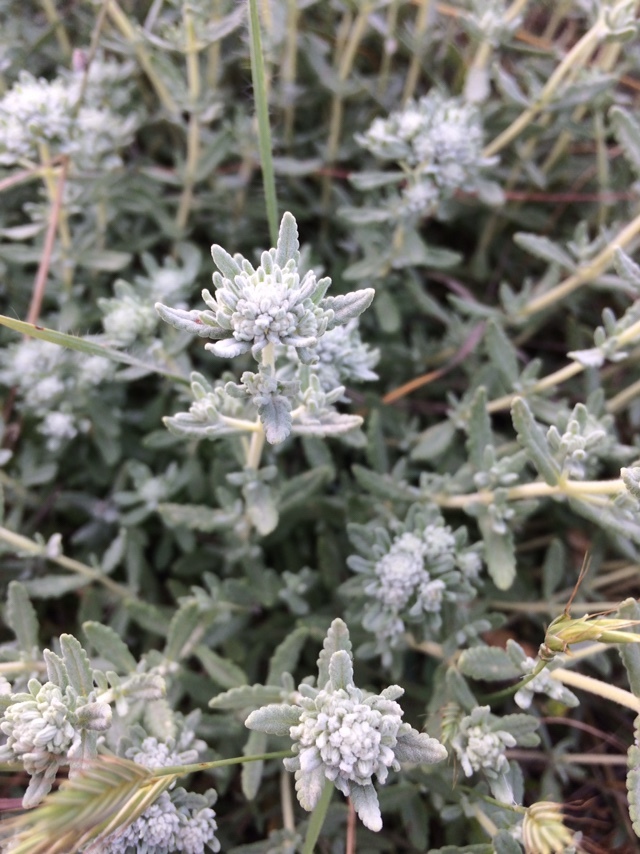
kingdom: Plantae
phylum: Tracheophyta
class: Magnoliopsida
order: Lamiales
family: Lamiaceae
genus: Teucrium
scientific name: Teucrium polium
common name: Poley
